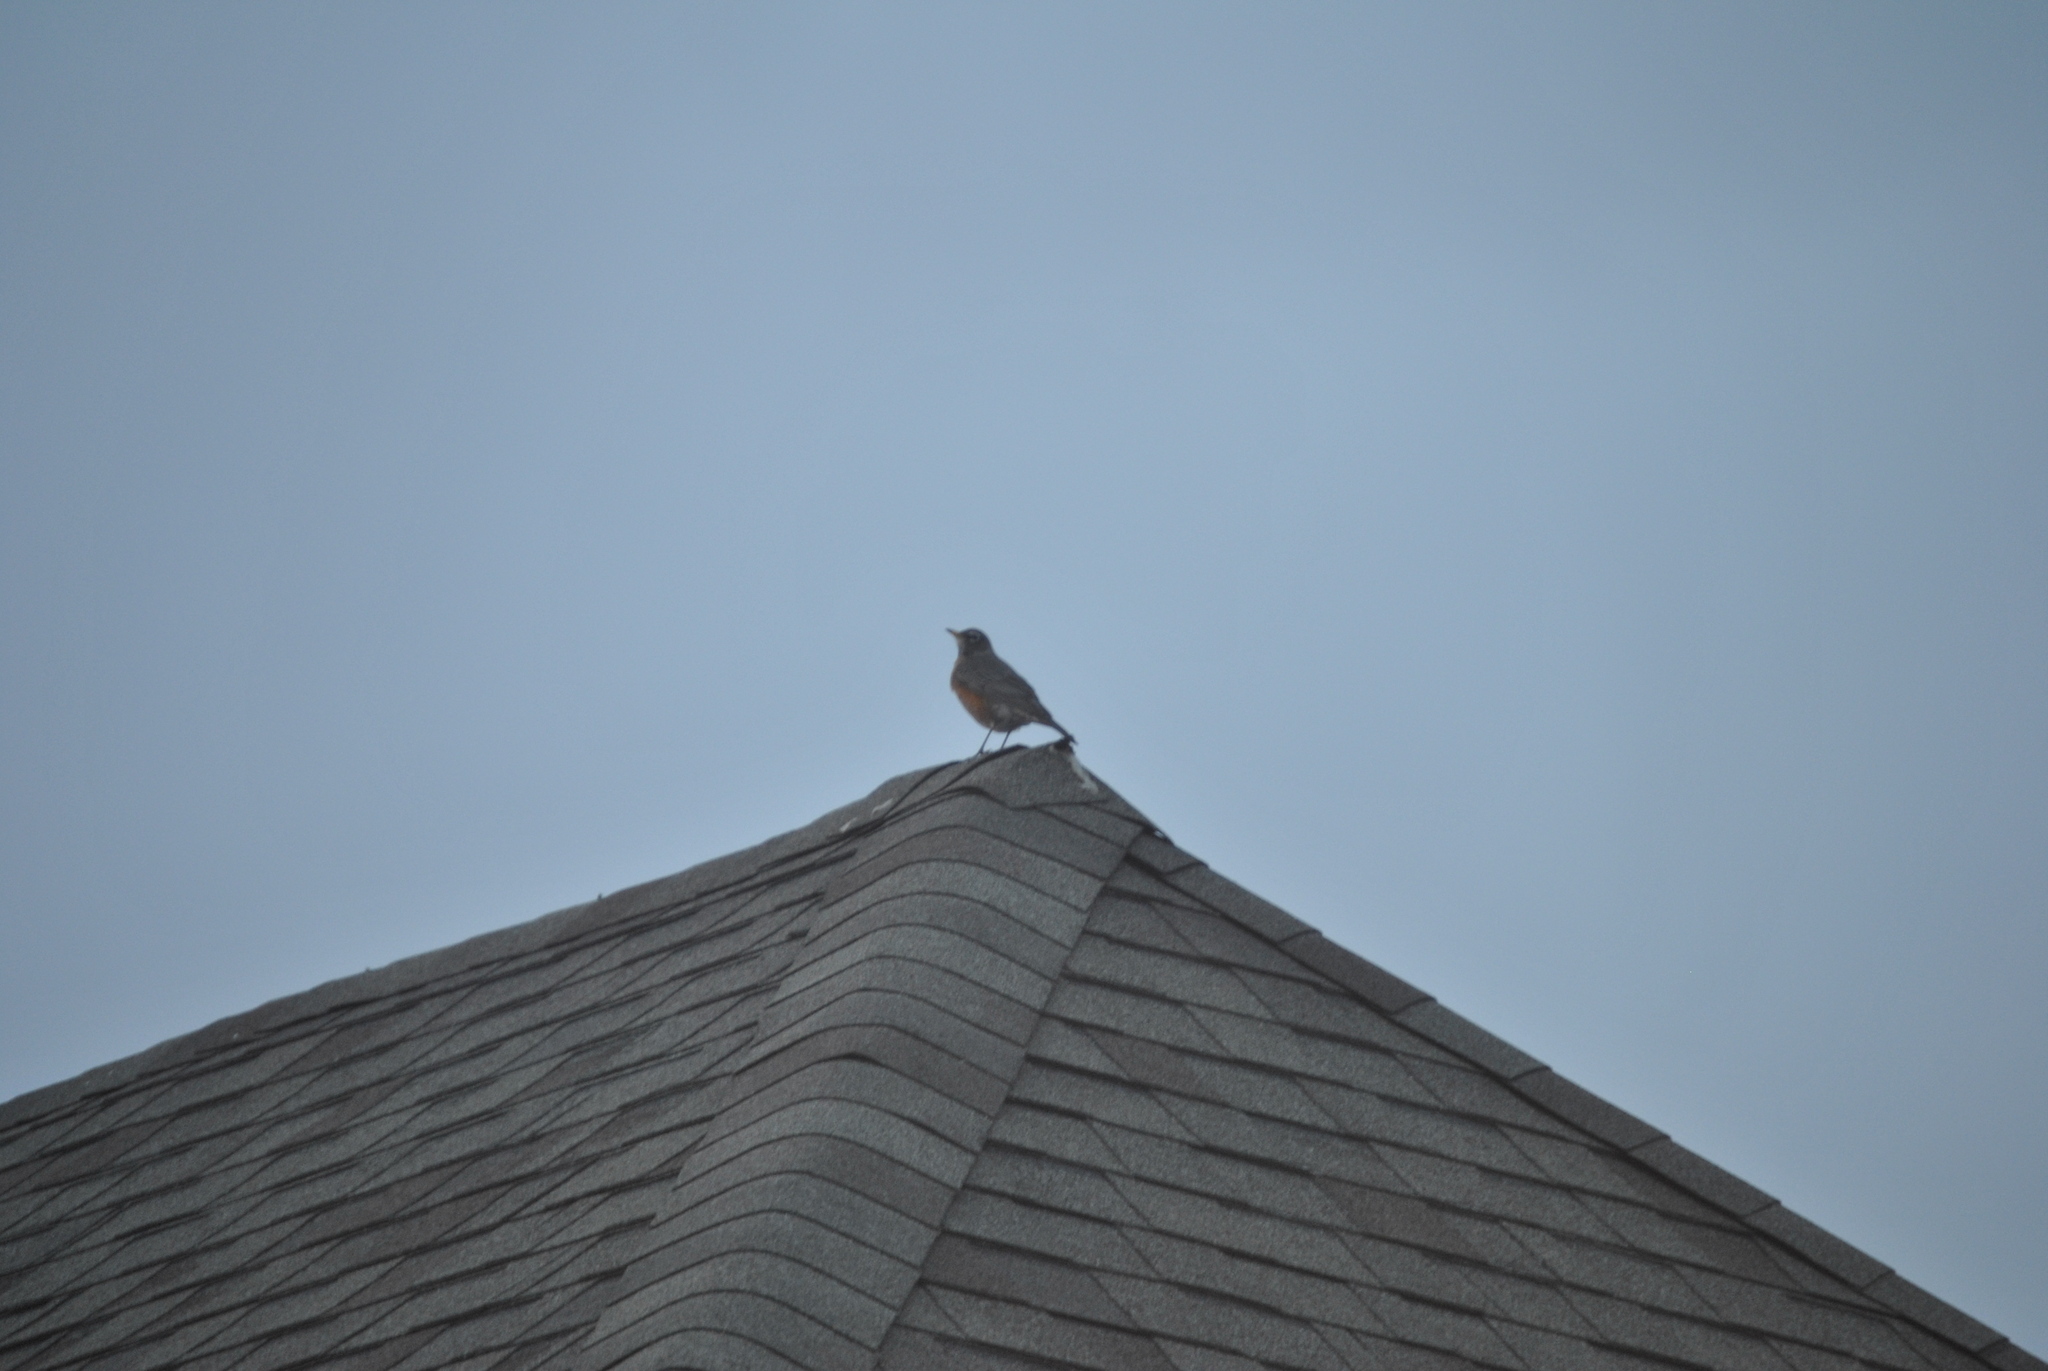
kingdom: Animalia
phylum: Chordata
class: Aves
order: Passeriformes
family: Turdidae
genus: Turdus
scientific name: Turdus migratorius
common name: American robin
